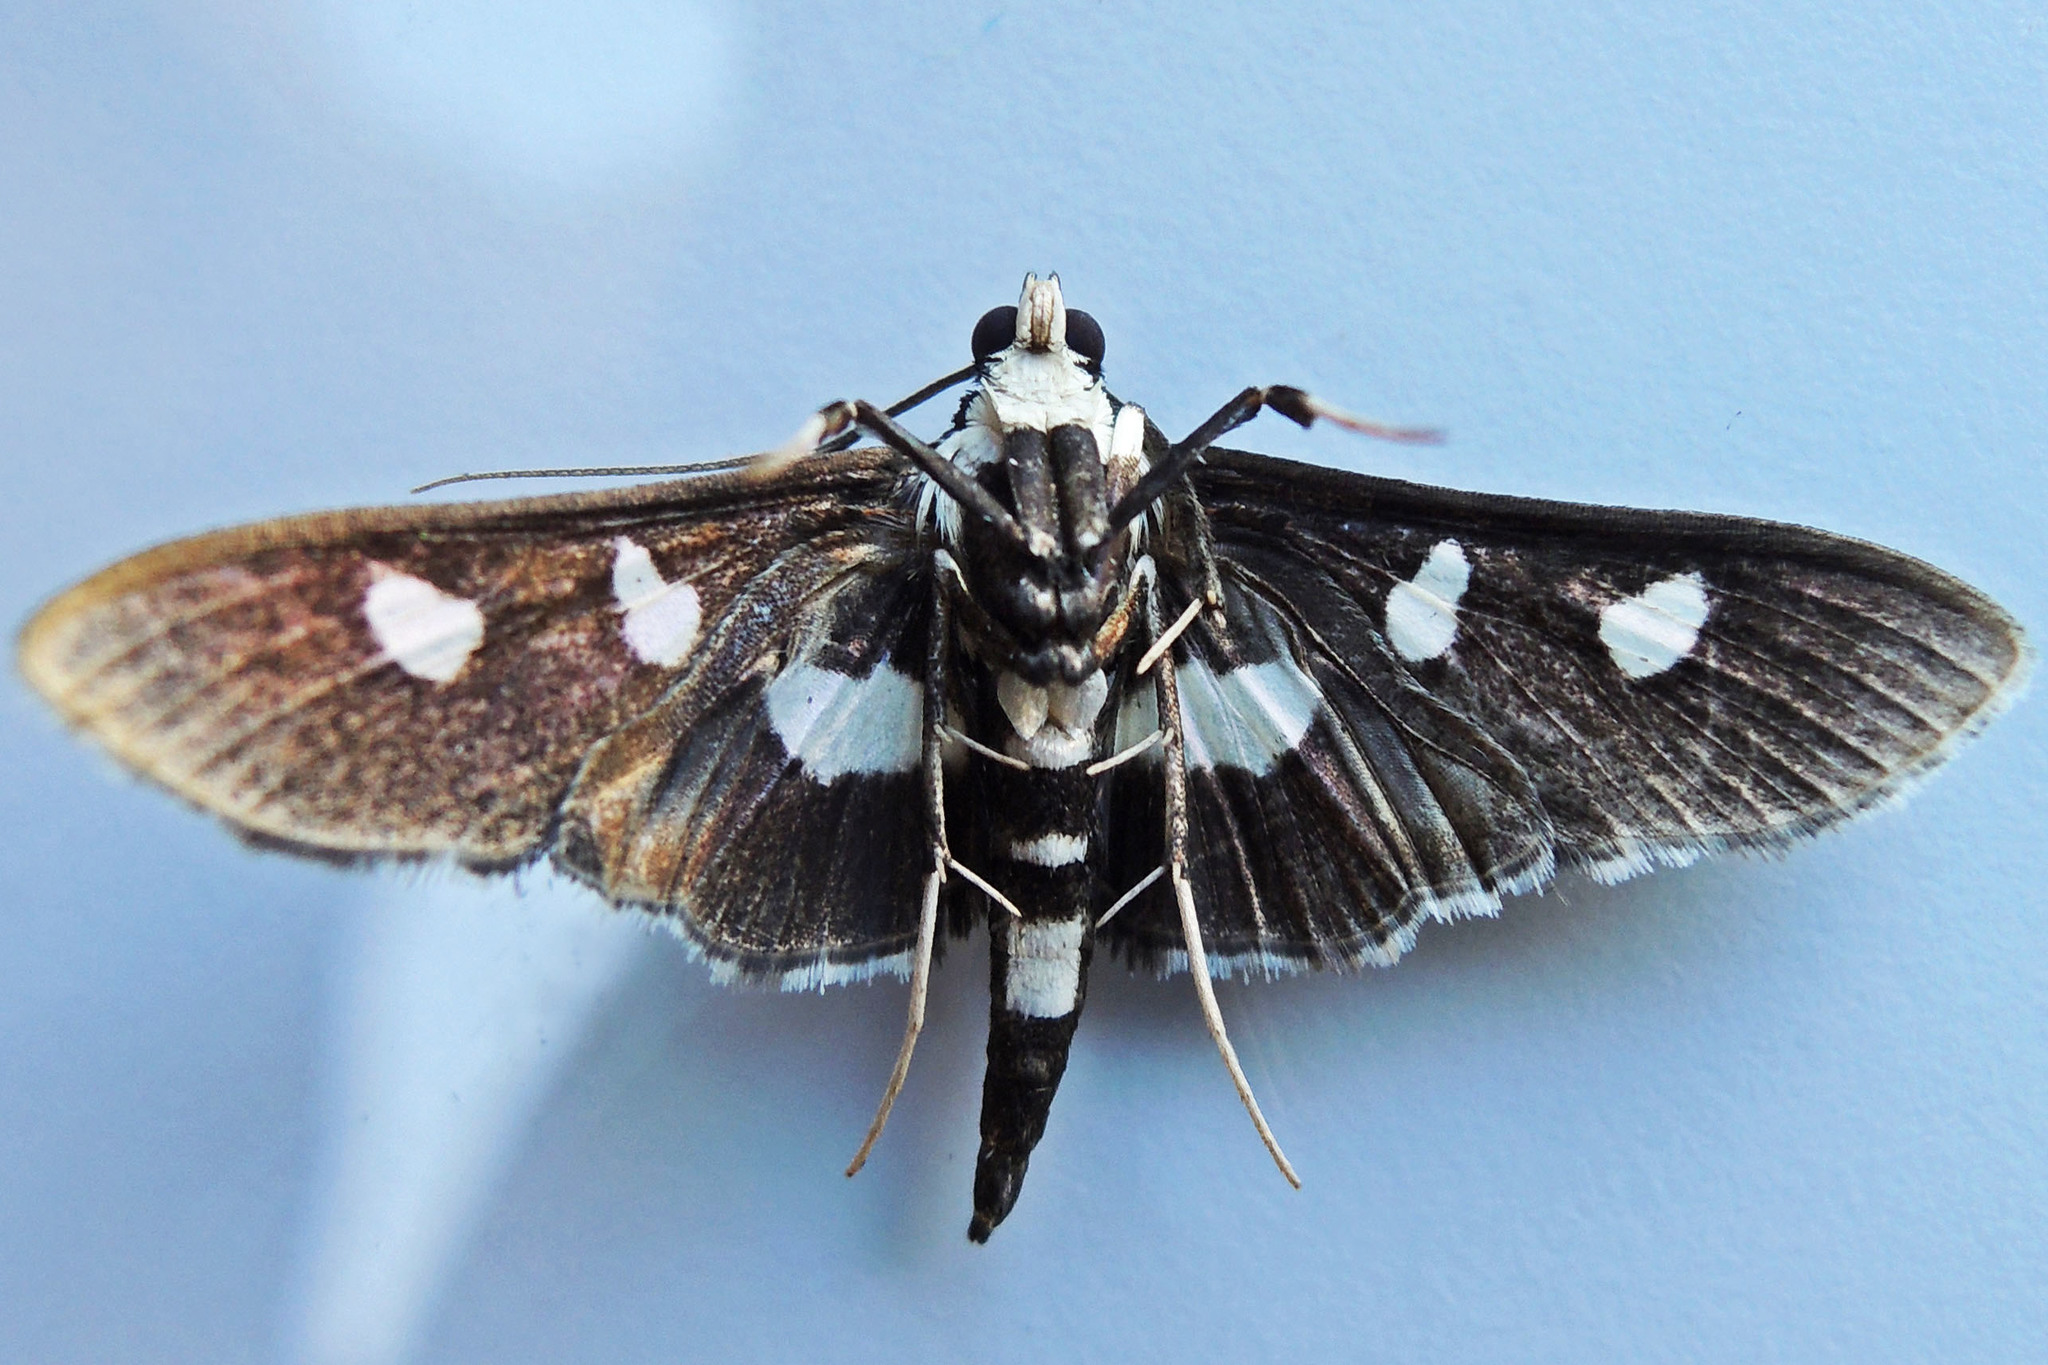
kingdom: Animalia
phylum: Arthropoda
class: Insecta
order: Lepidoptera
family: Crambidae
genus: Desmia
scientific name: Desmia funeralis
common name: Grape leaf folder moth
